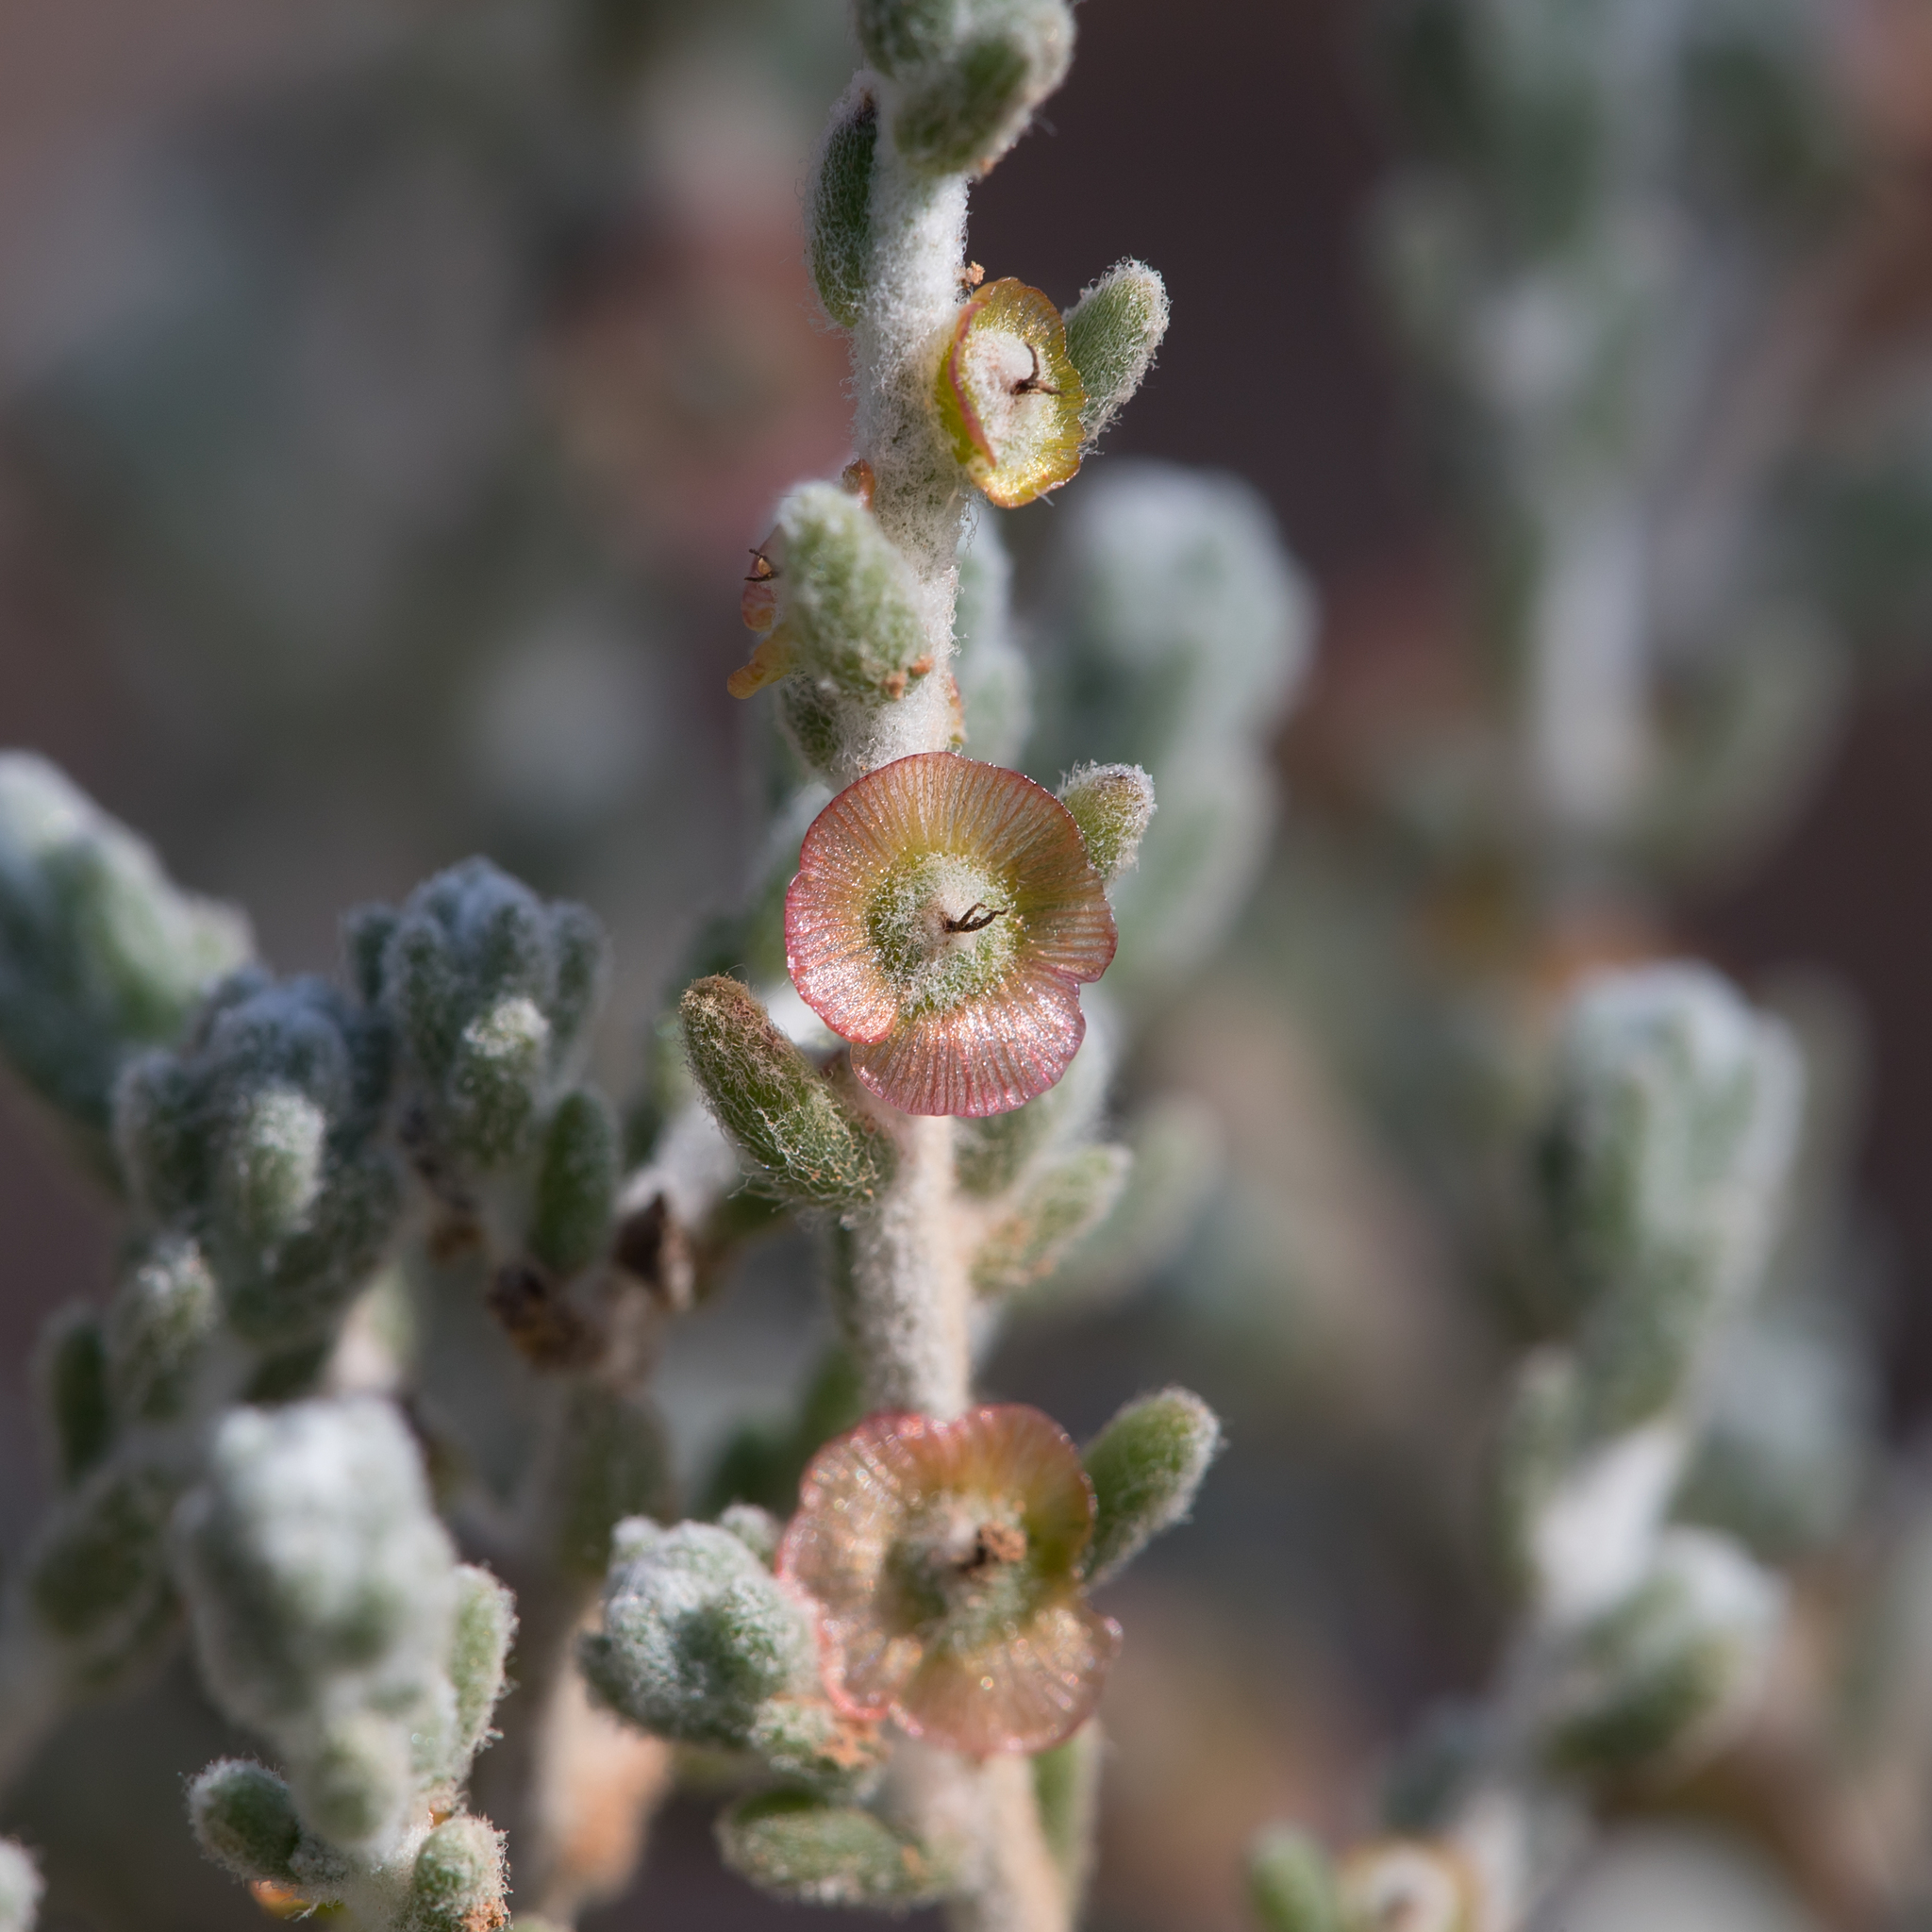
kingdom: Plantae
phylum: Tracheophyta
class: Magnoliopsida
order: Caryophyllales
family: Amaranthaceae
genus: Maireana
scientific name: Maireana radiata
